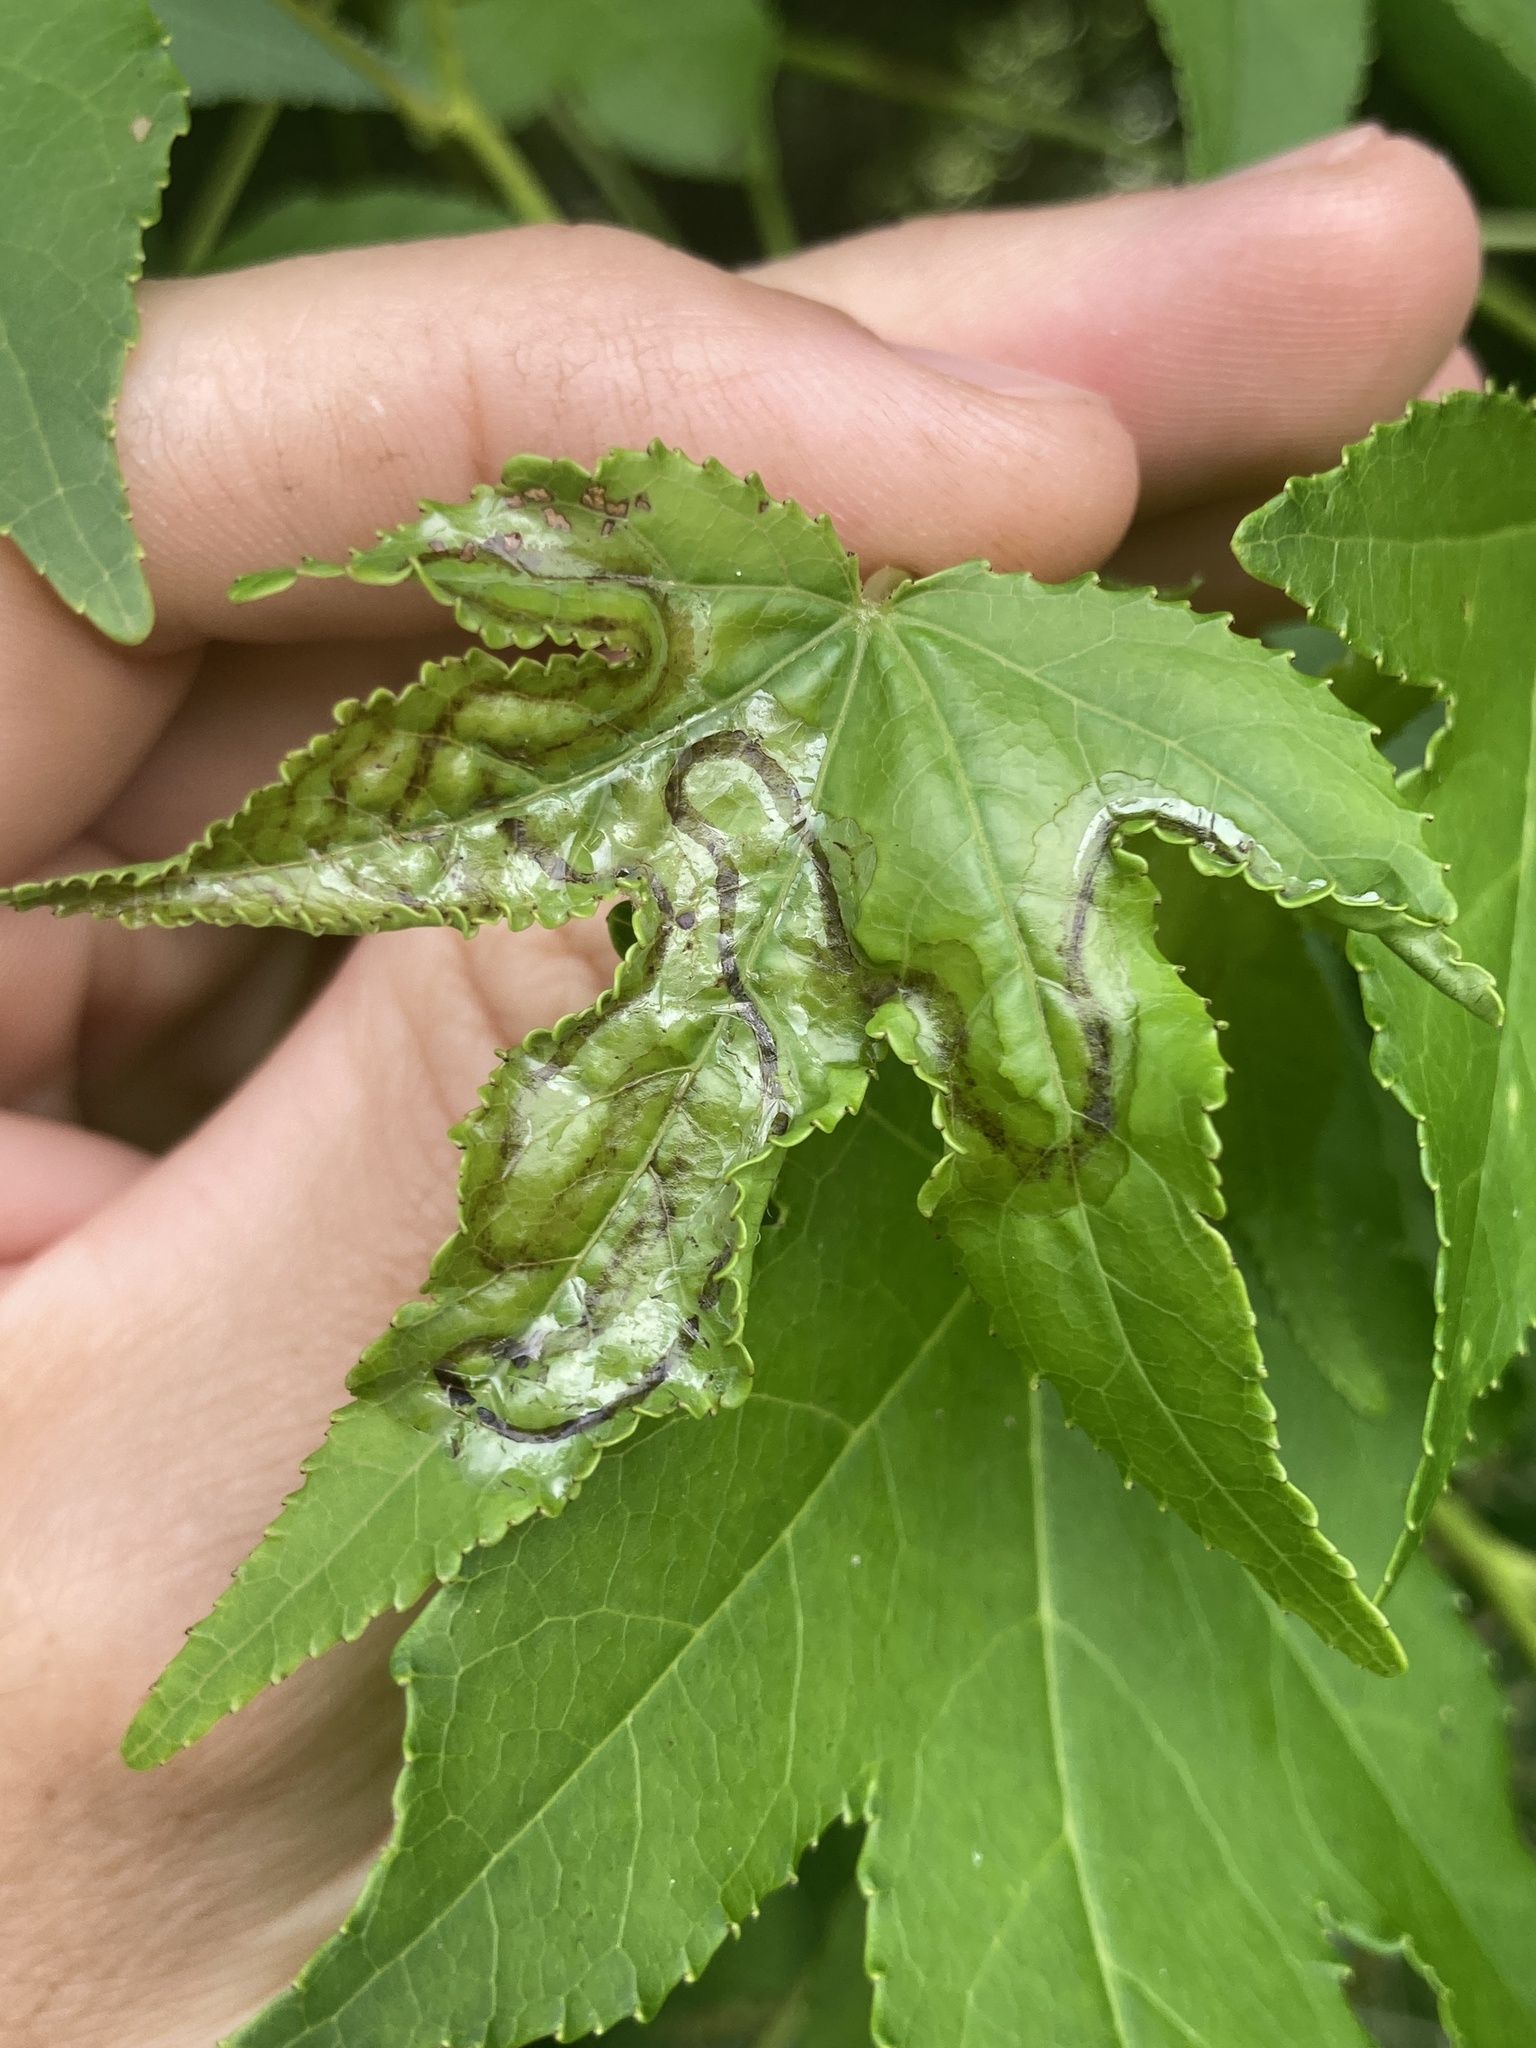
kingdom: Animalia
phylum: Arthropoda
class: Insecta
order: Lepidoptera
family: Gracillariidae
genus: Phyllocnistis
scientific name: Phyllocnistis liquidambarisella
